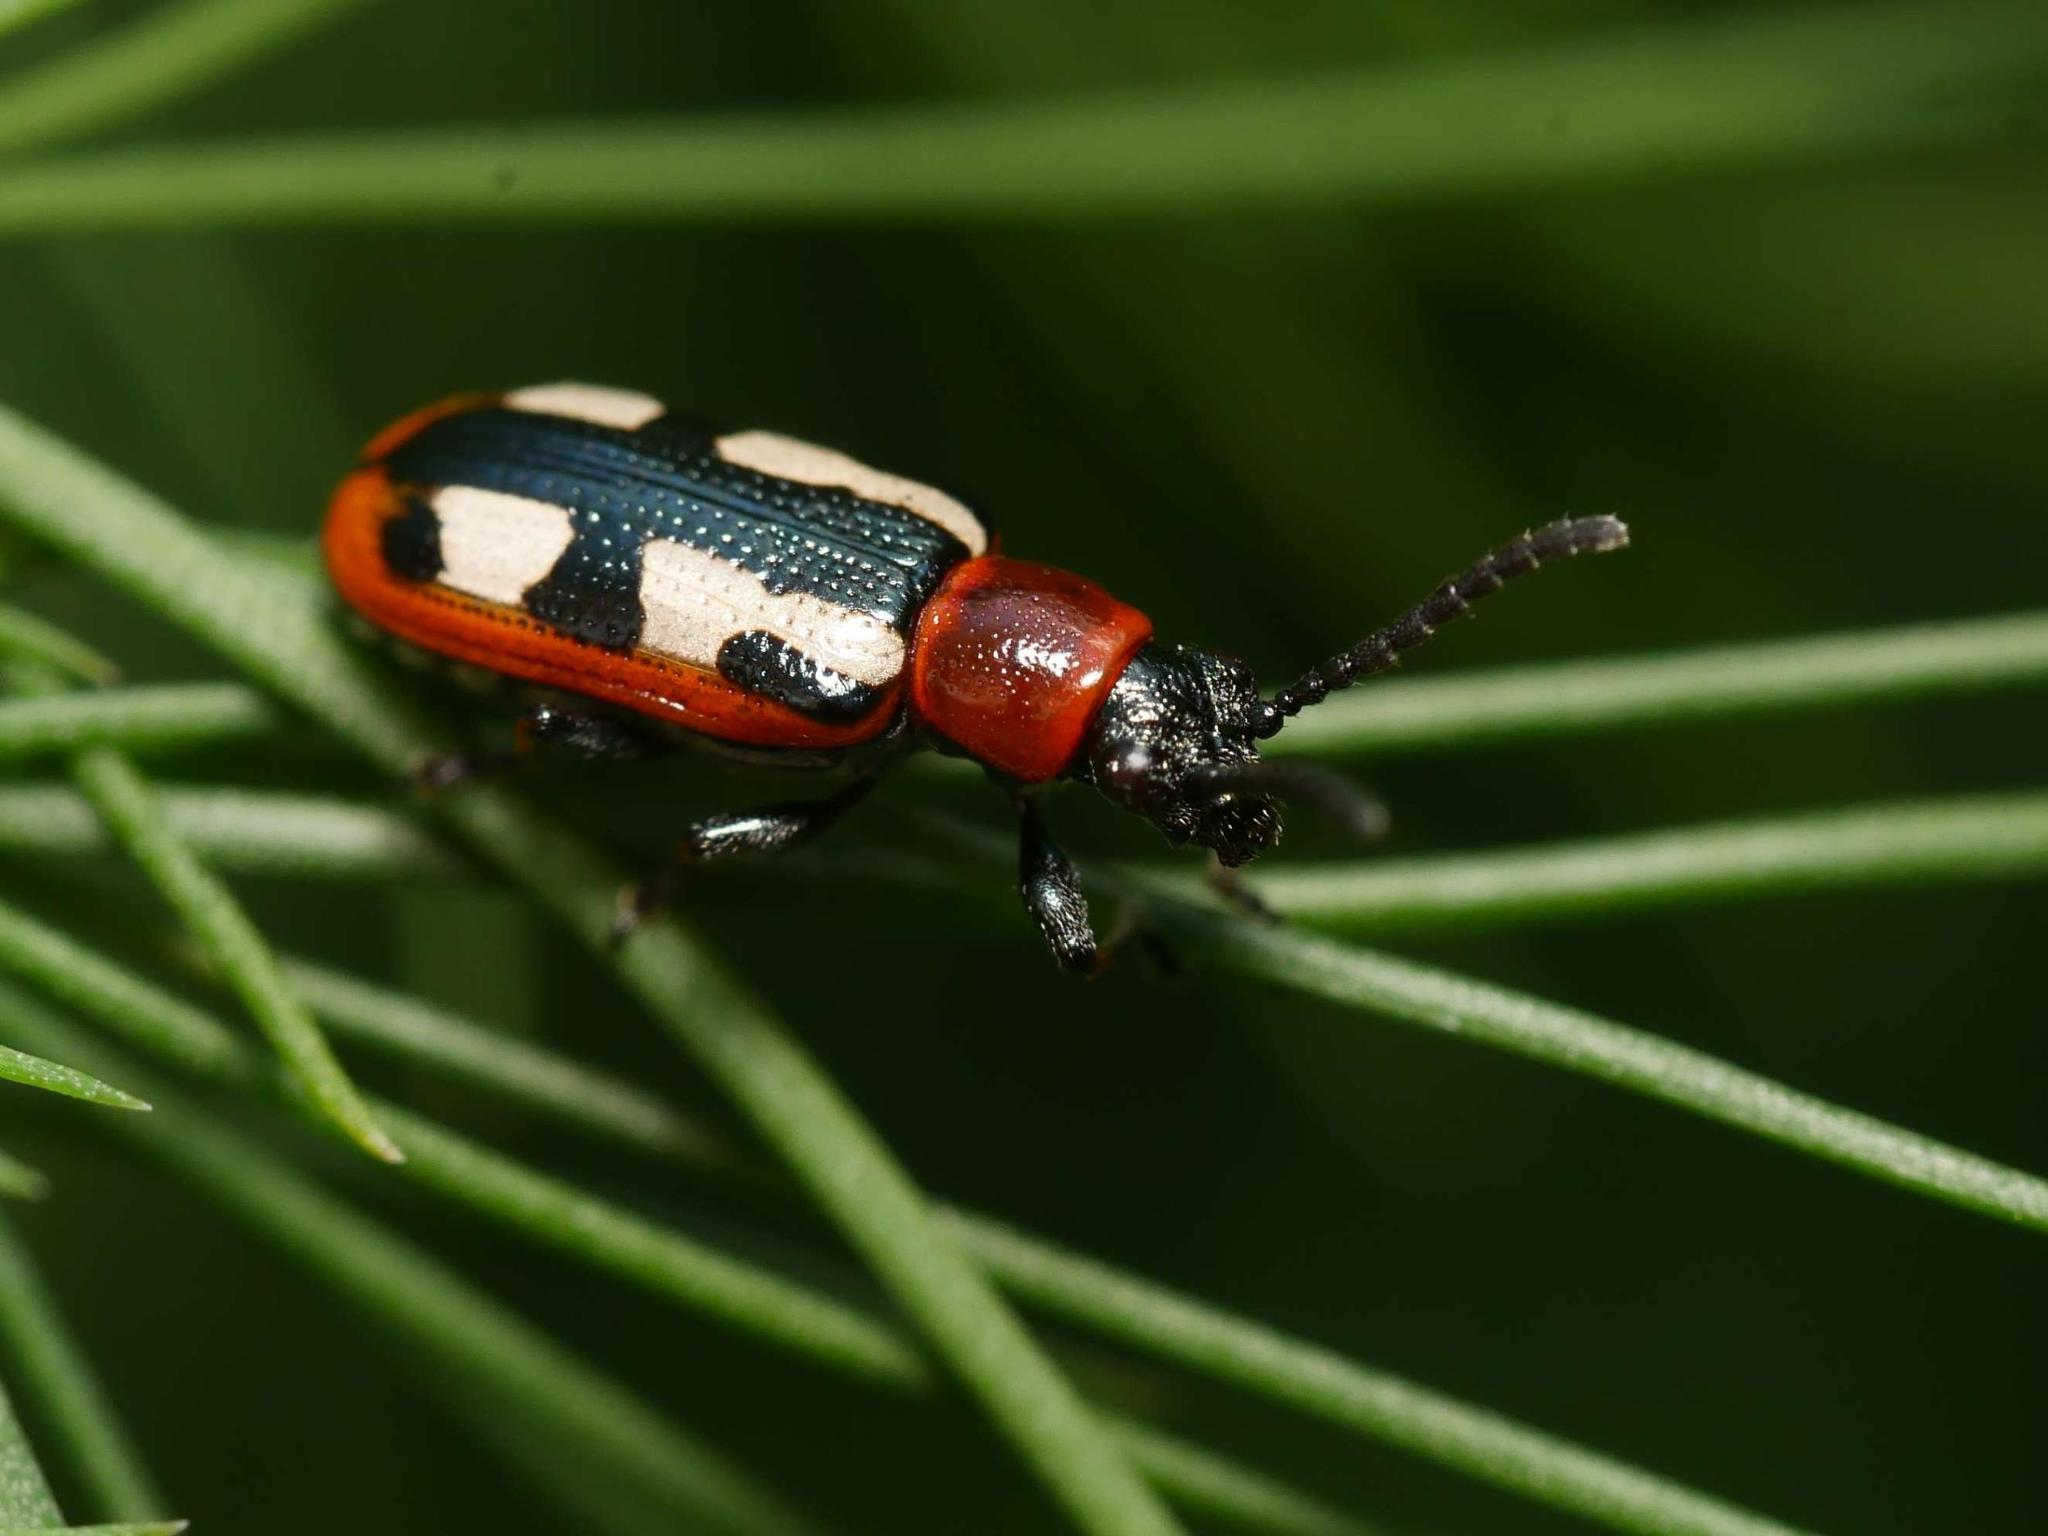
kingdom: Animalia
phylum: Arthropoda
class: Insecta
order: Coleoptera
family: Chrysomelidae
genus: Crioceris
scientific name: Crioceris asparagi
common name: Asparagus beetle
